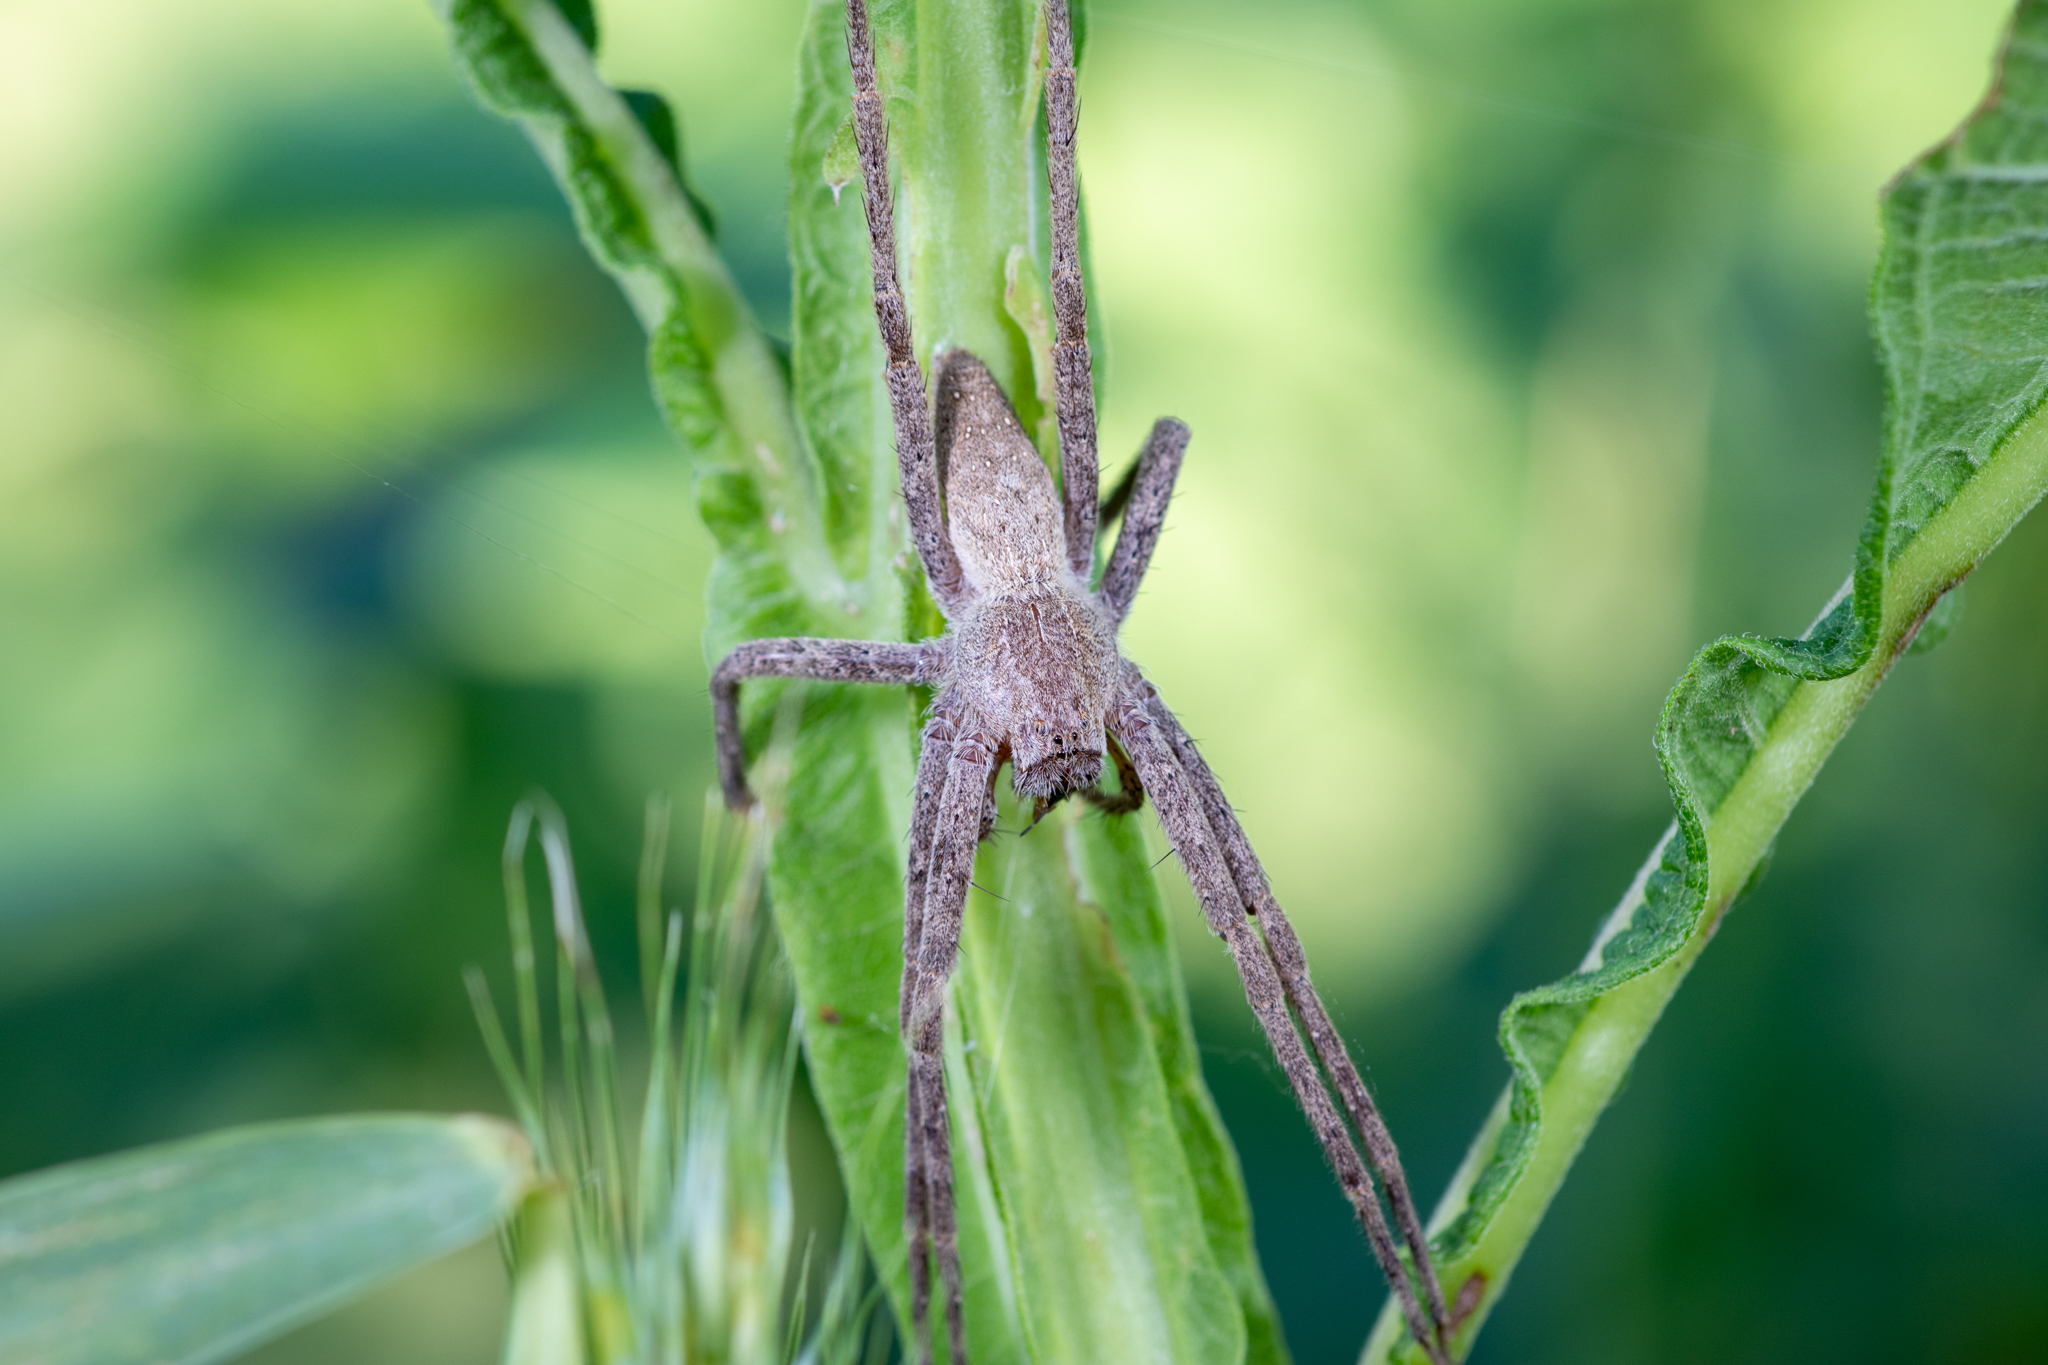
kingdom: Animalia
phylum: Arthropoda
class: Arachnida
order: Araneae
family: Pisauridae
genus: Pisaurina
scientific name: Pisaurina mira
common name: American nursery web spider
